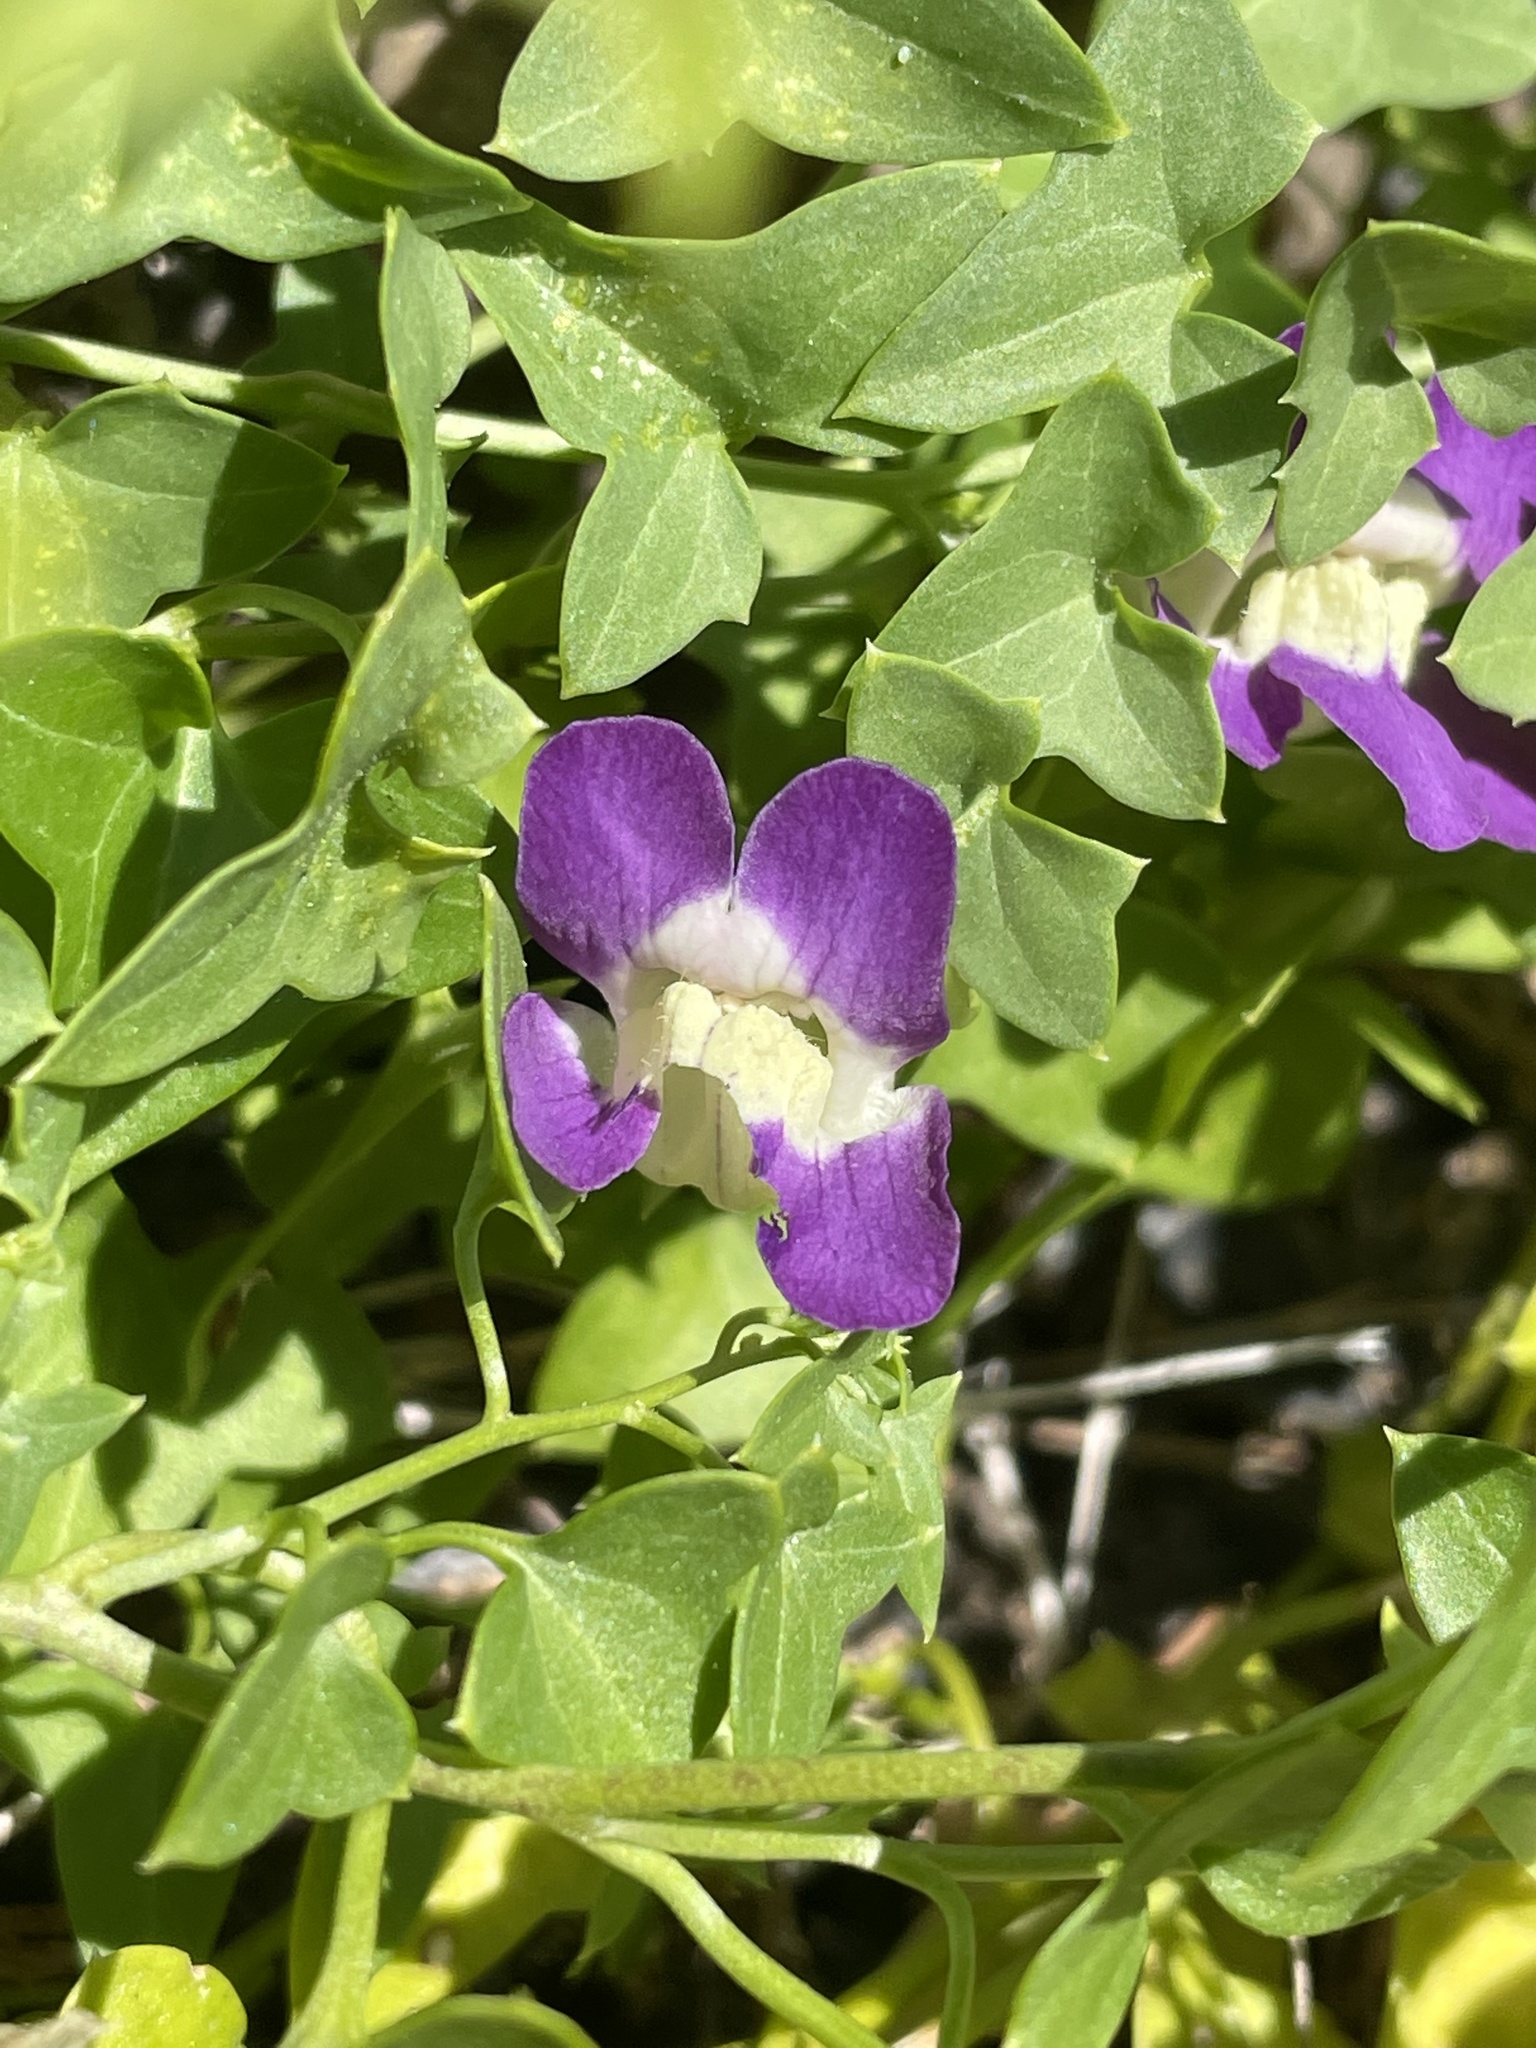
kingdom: Plantae
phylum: Tracheophyta
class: Magnoliopsida
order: Lamiales
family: Plantaginaceae
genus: Maurandella
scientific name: Maurandella antirrhiniflora
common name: Violet twining-snapdragon
